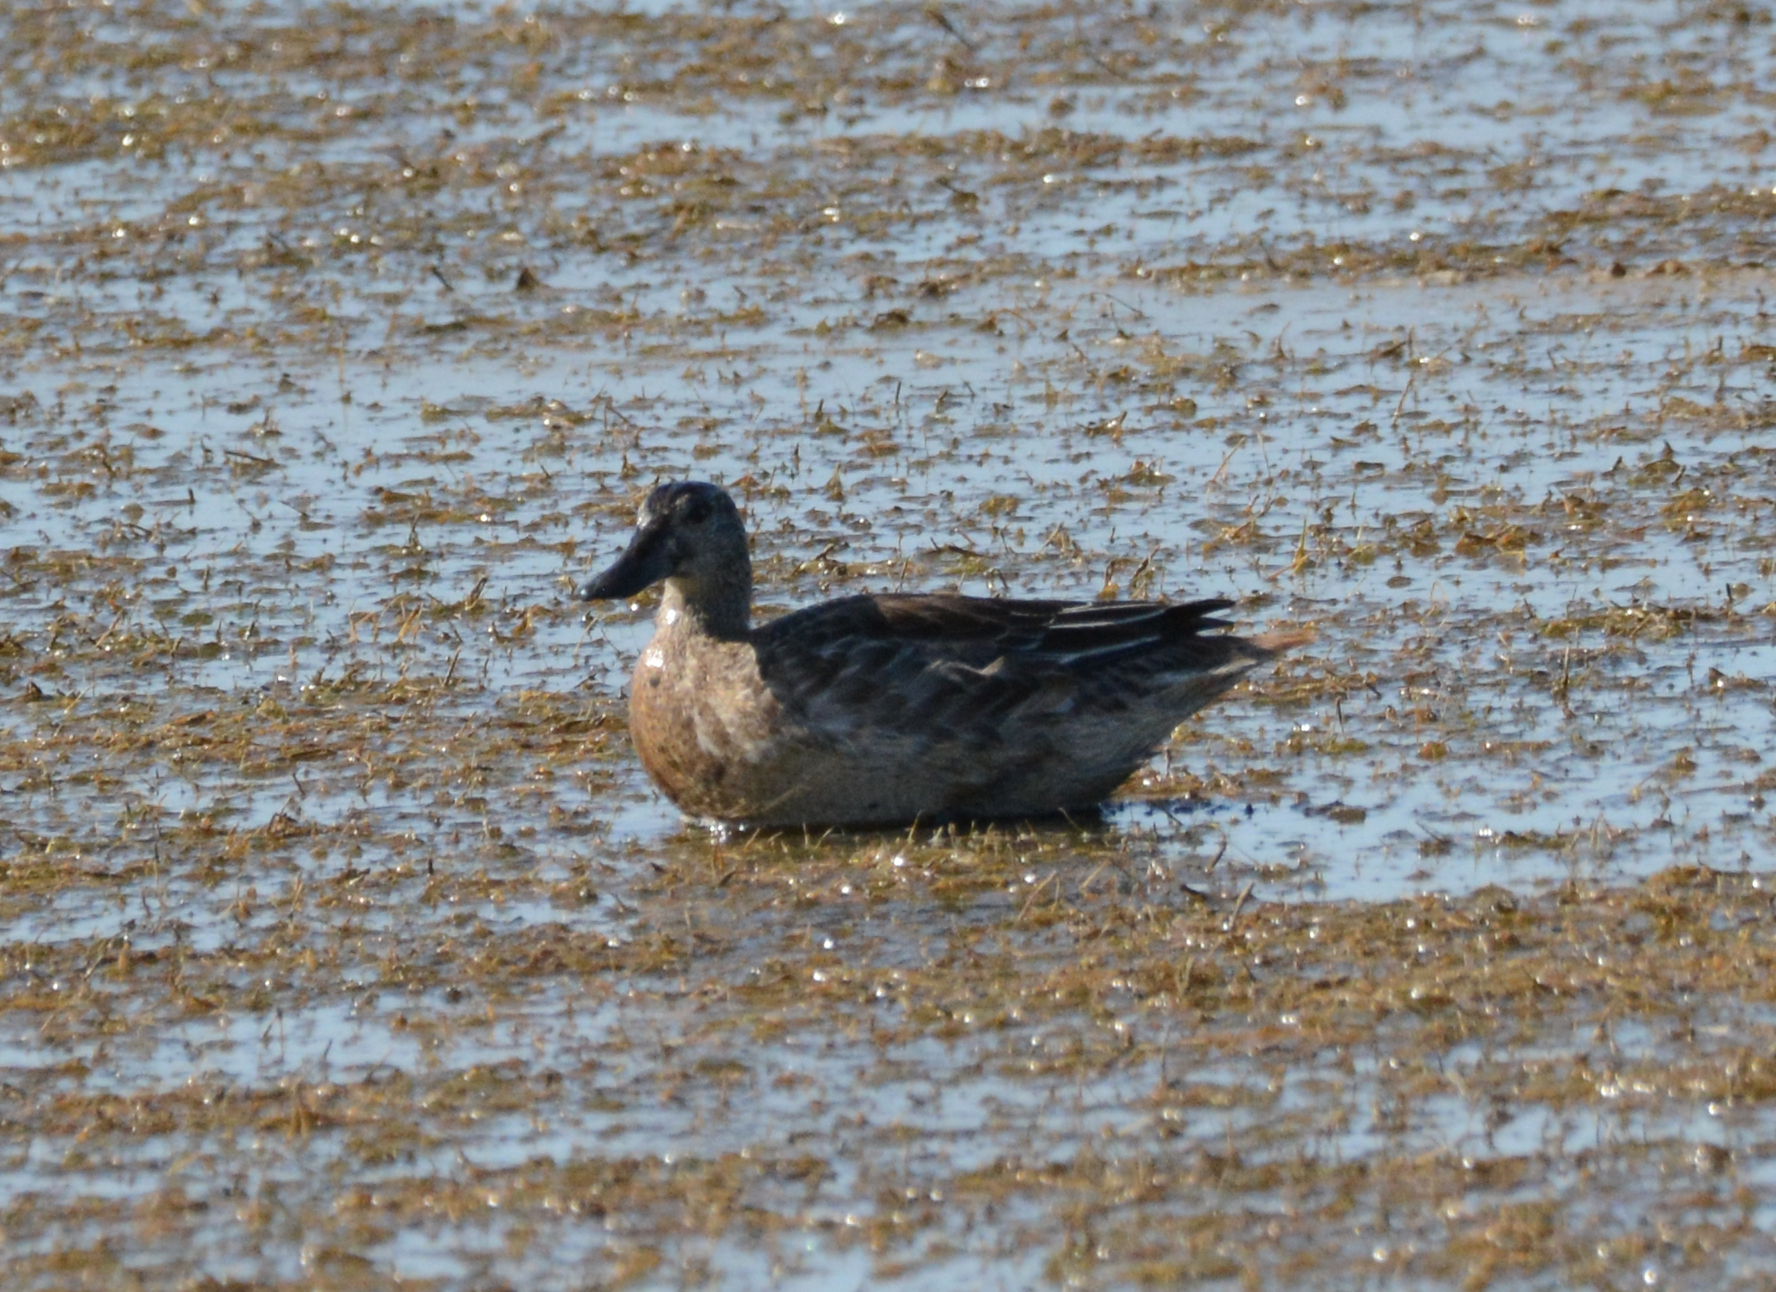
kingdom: Animalia
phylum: Chordata
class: Aves
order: Anseriformes
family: Anatidae
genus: Spatula
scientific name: Spatula querquedula
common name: Garganey
